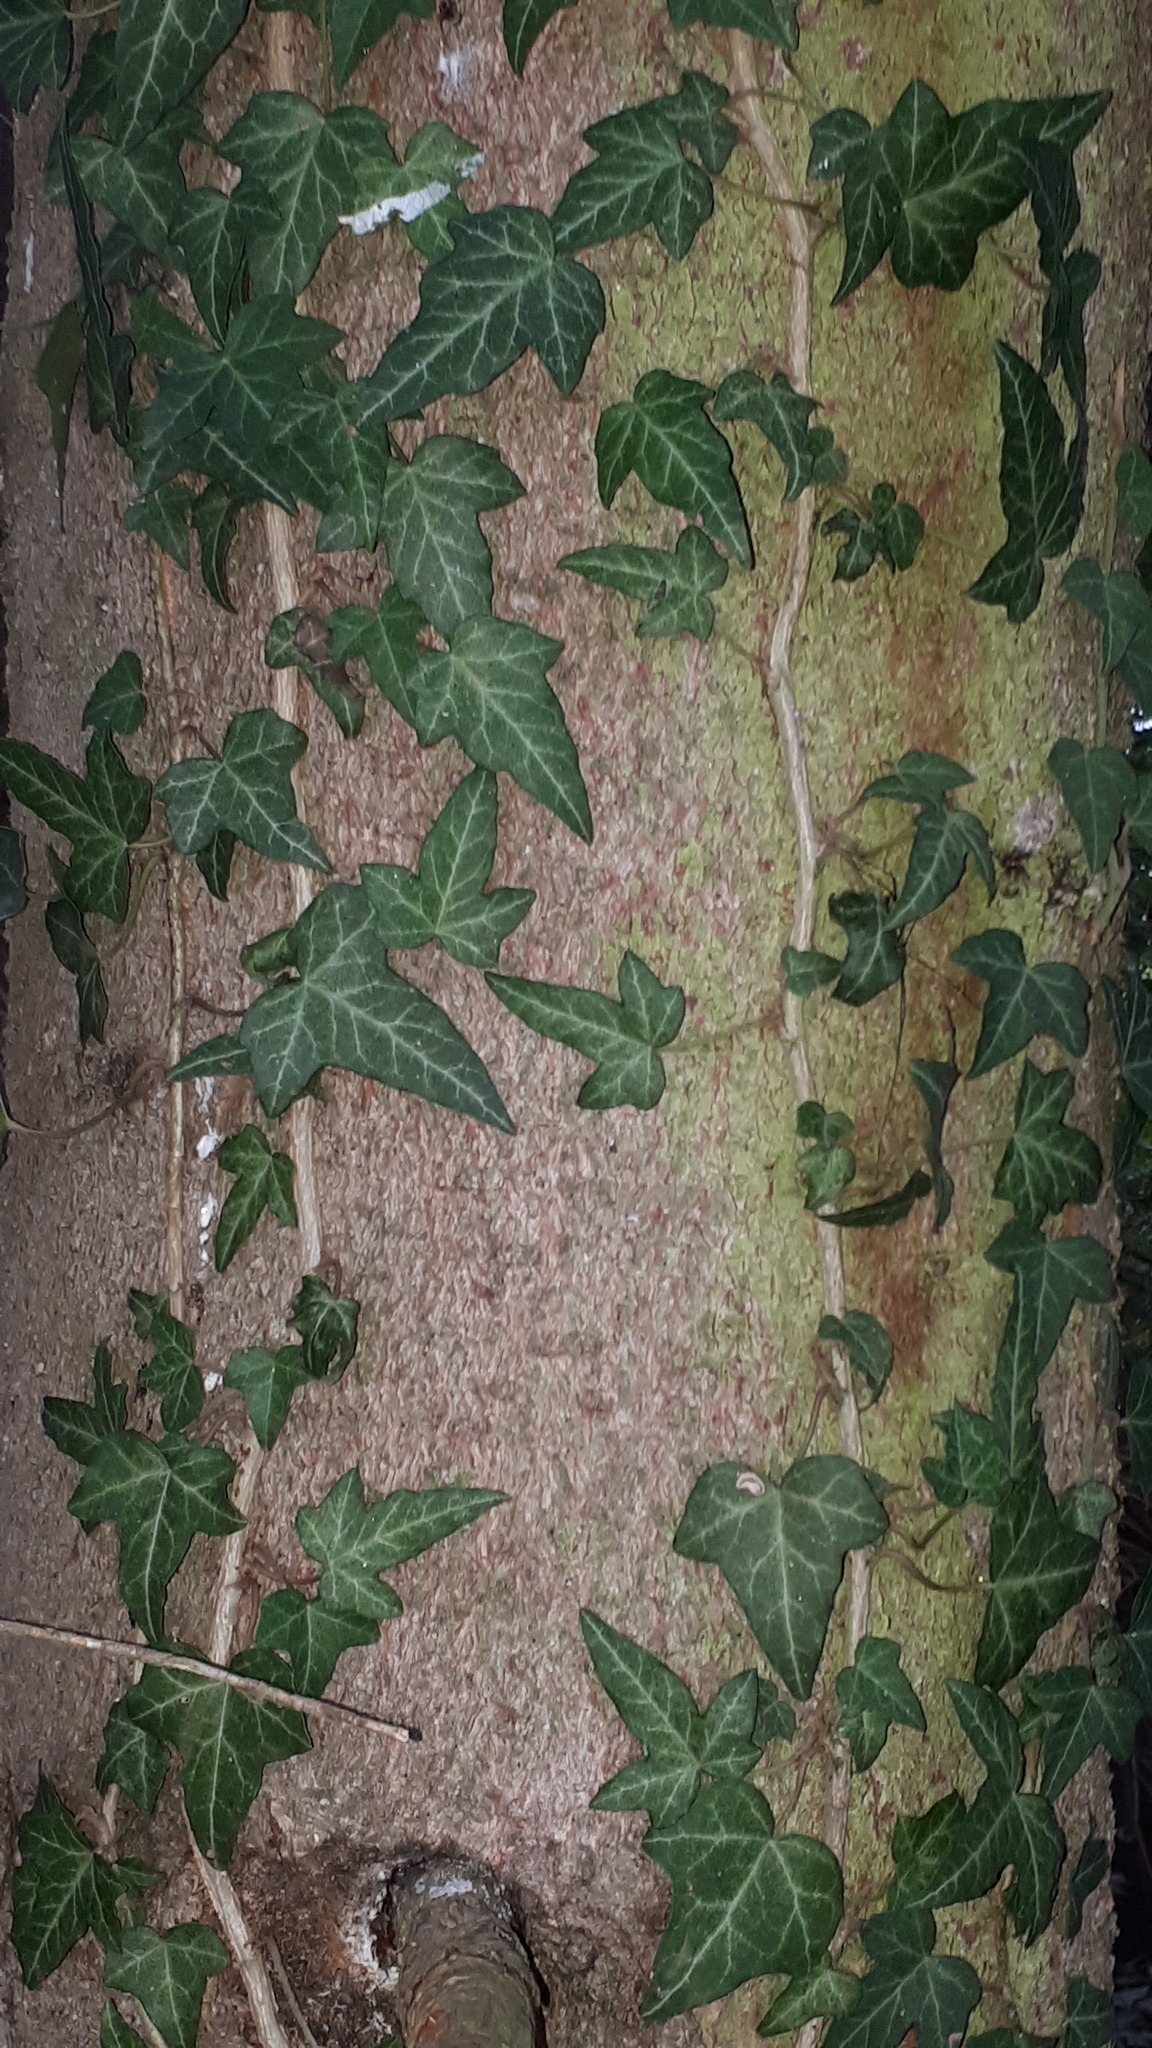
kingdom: Plantae
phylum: Tracheophyta
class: Magnoliopsida
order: Apiales
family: Araliaceae
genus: Hedera
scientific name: Hedera helix
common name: Ivy
